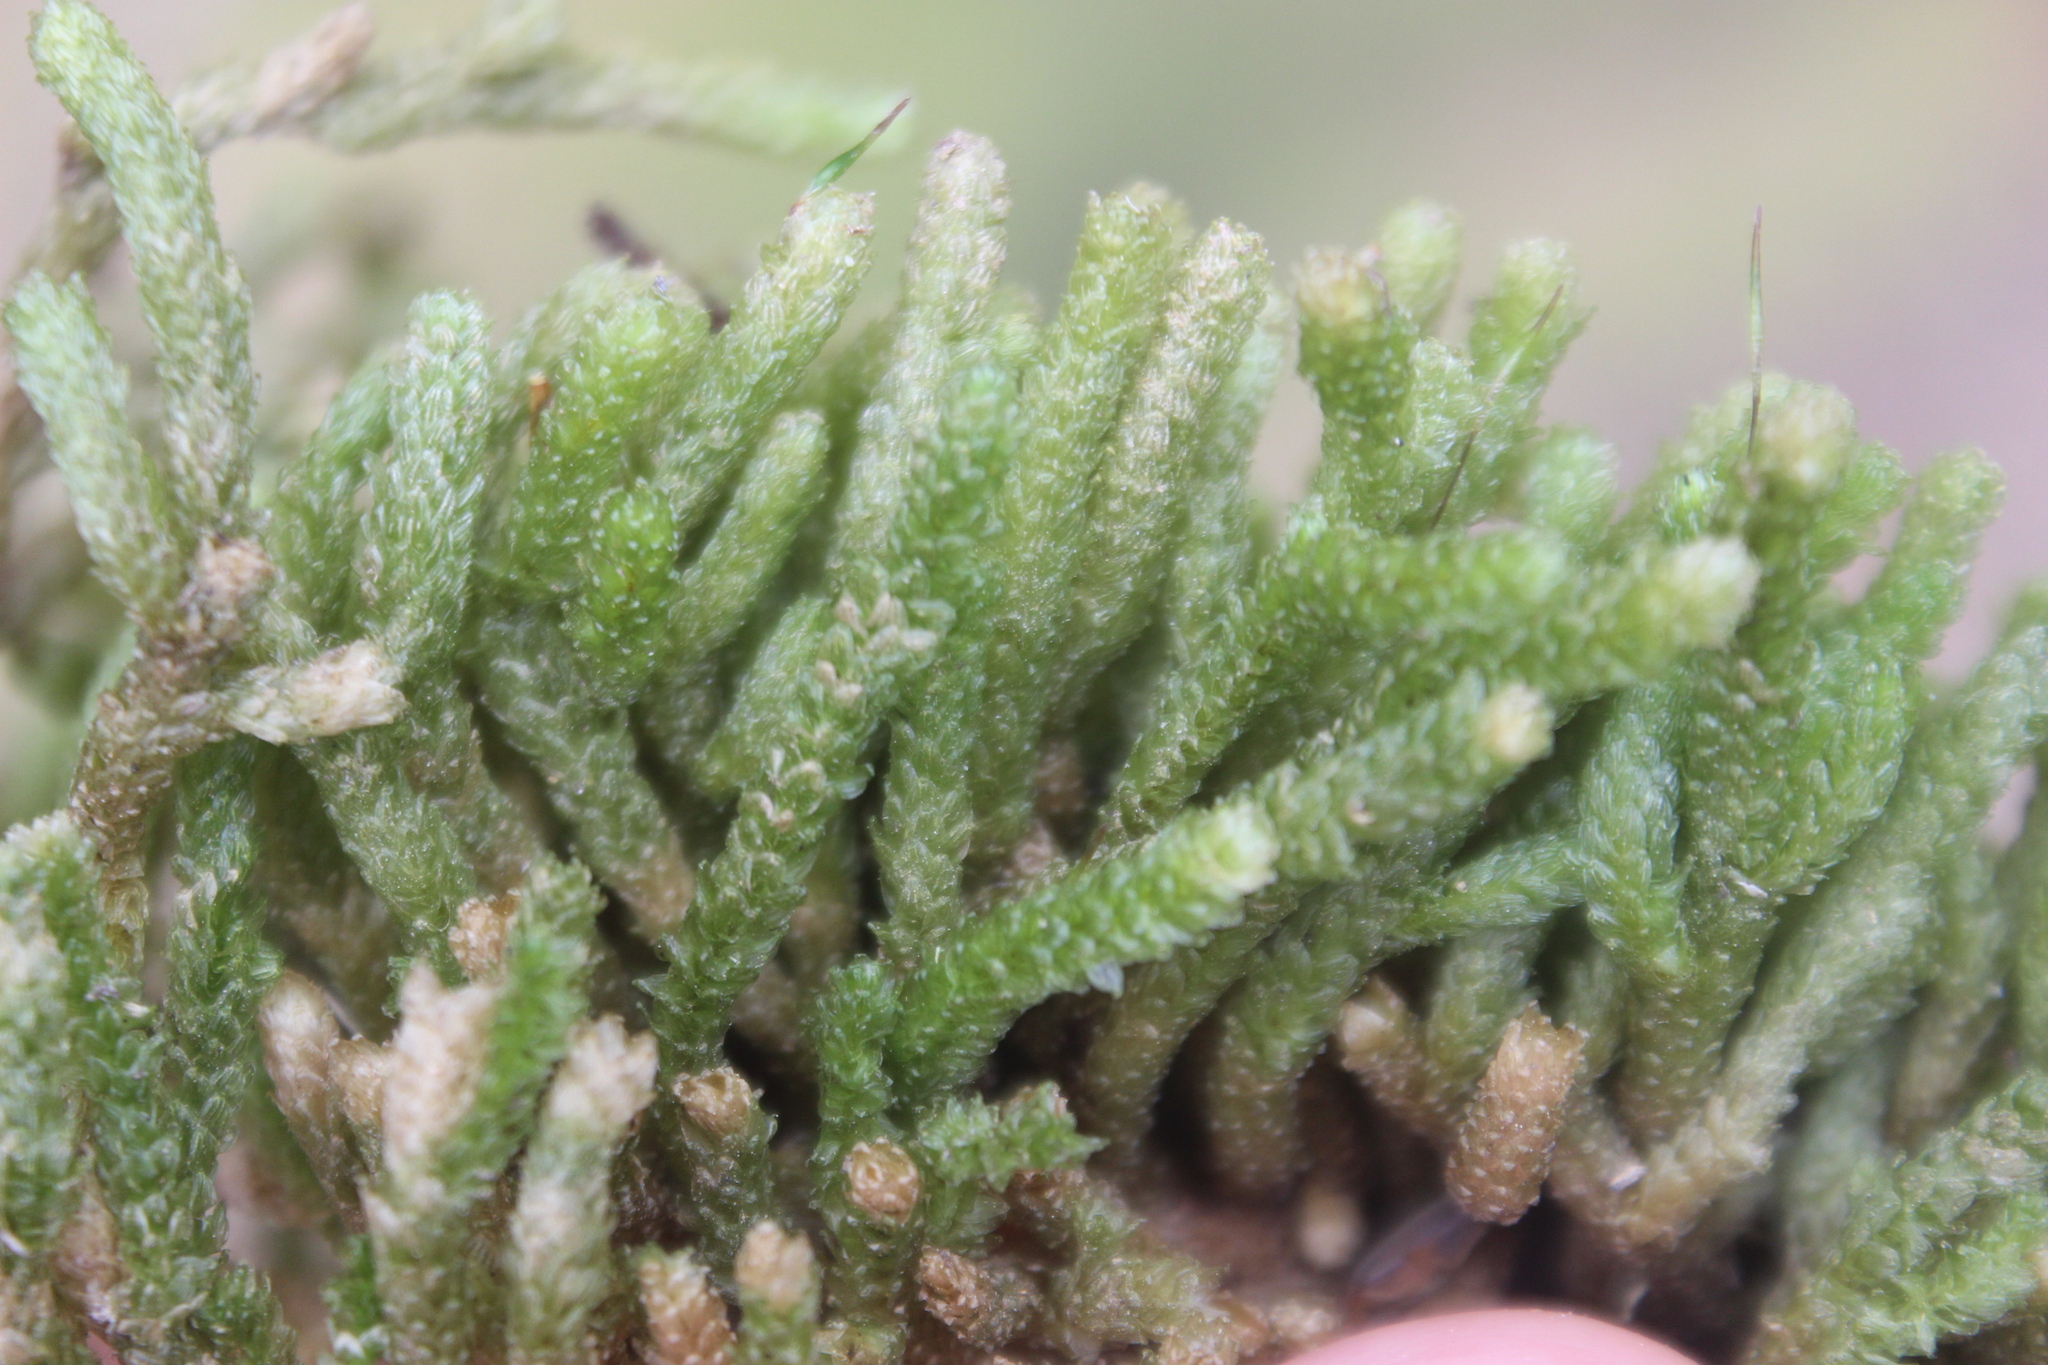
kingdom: Plantae
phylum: Bryophyta
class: Bryopsida
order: Ptychomniales
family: Ptychomniaceae
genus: Cladomnion
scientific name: Cladomnion ericoides
